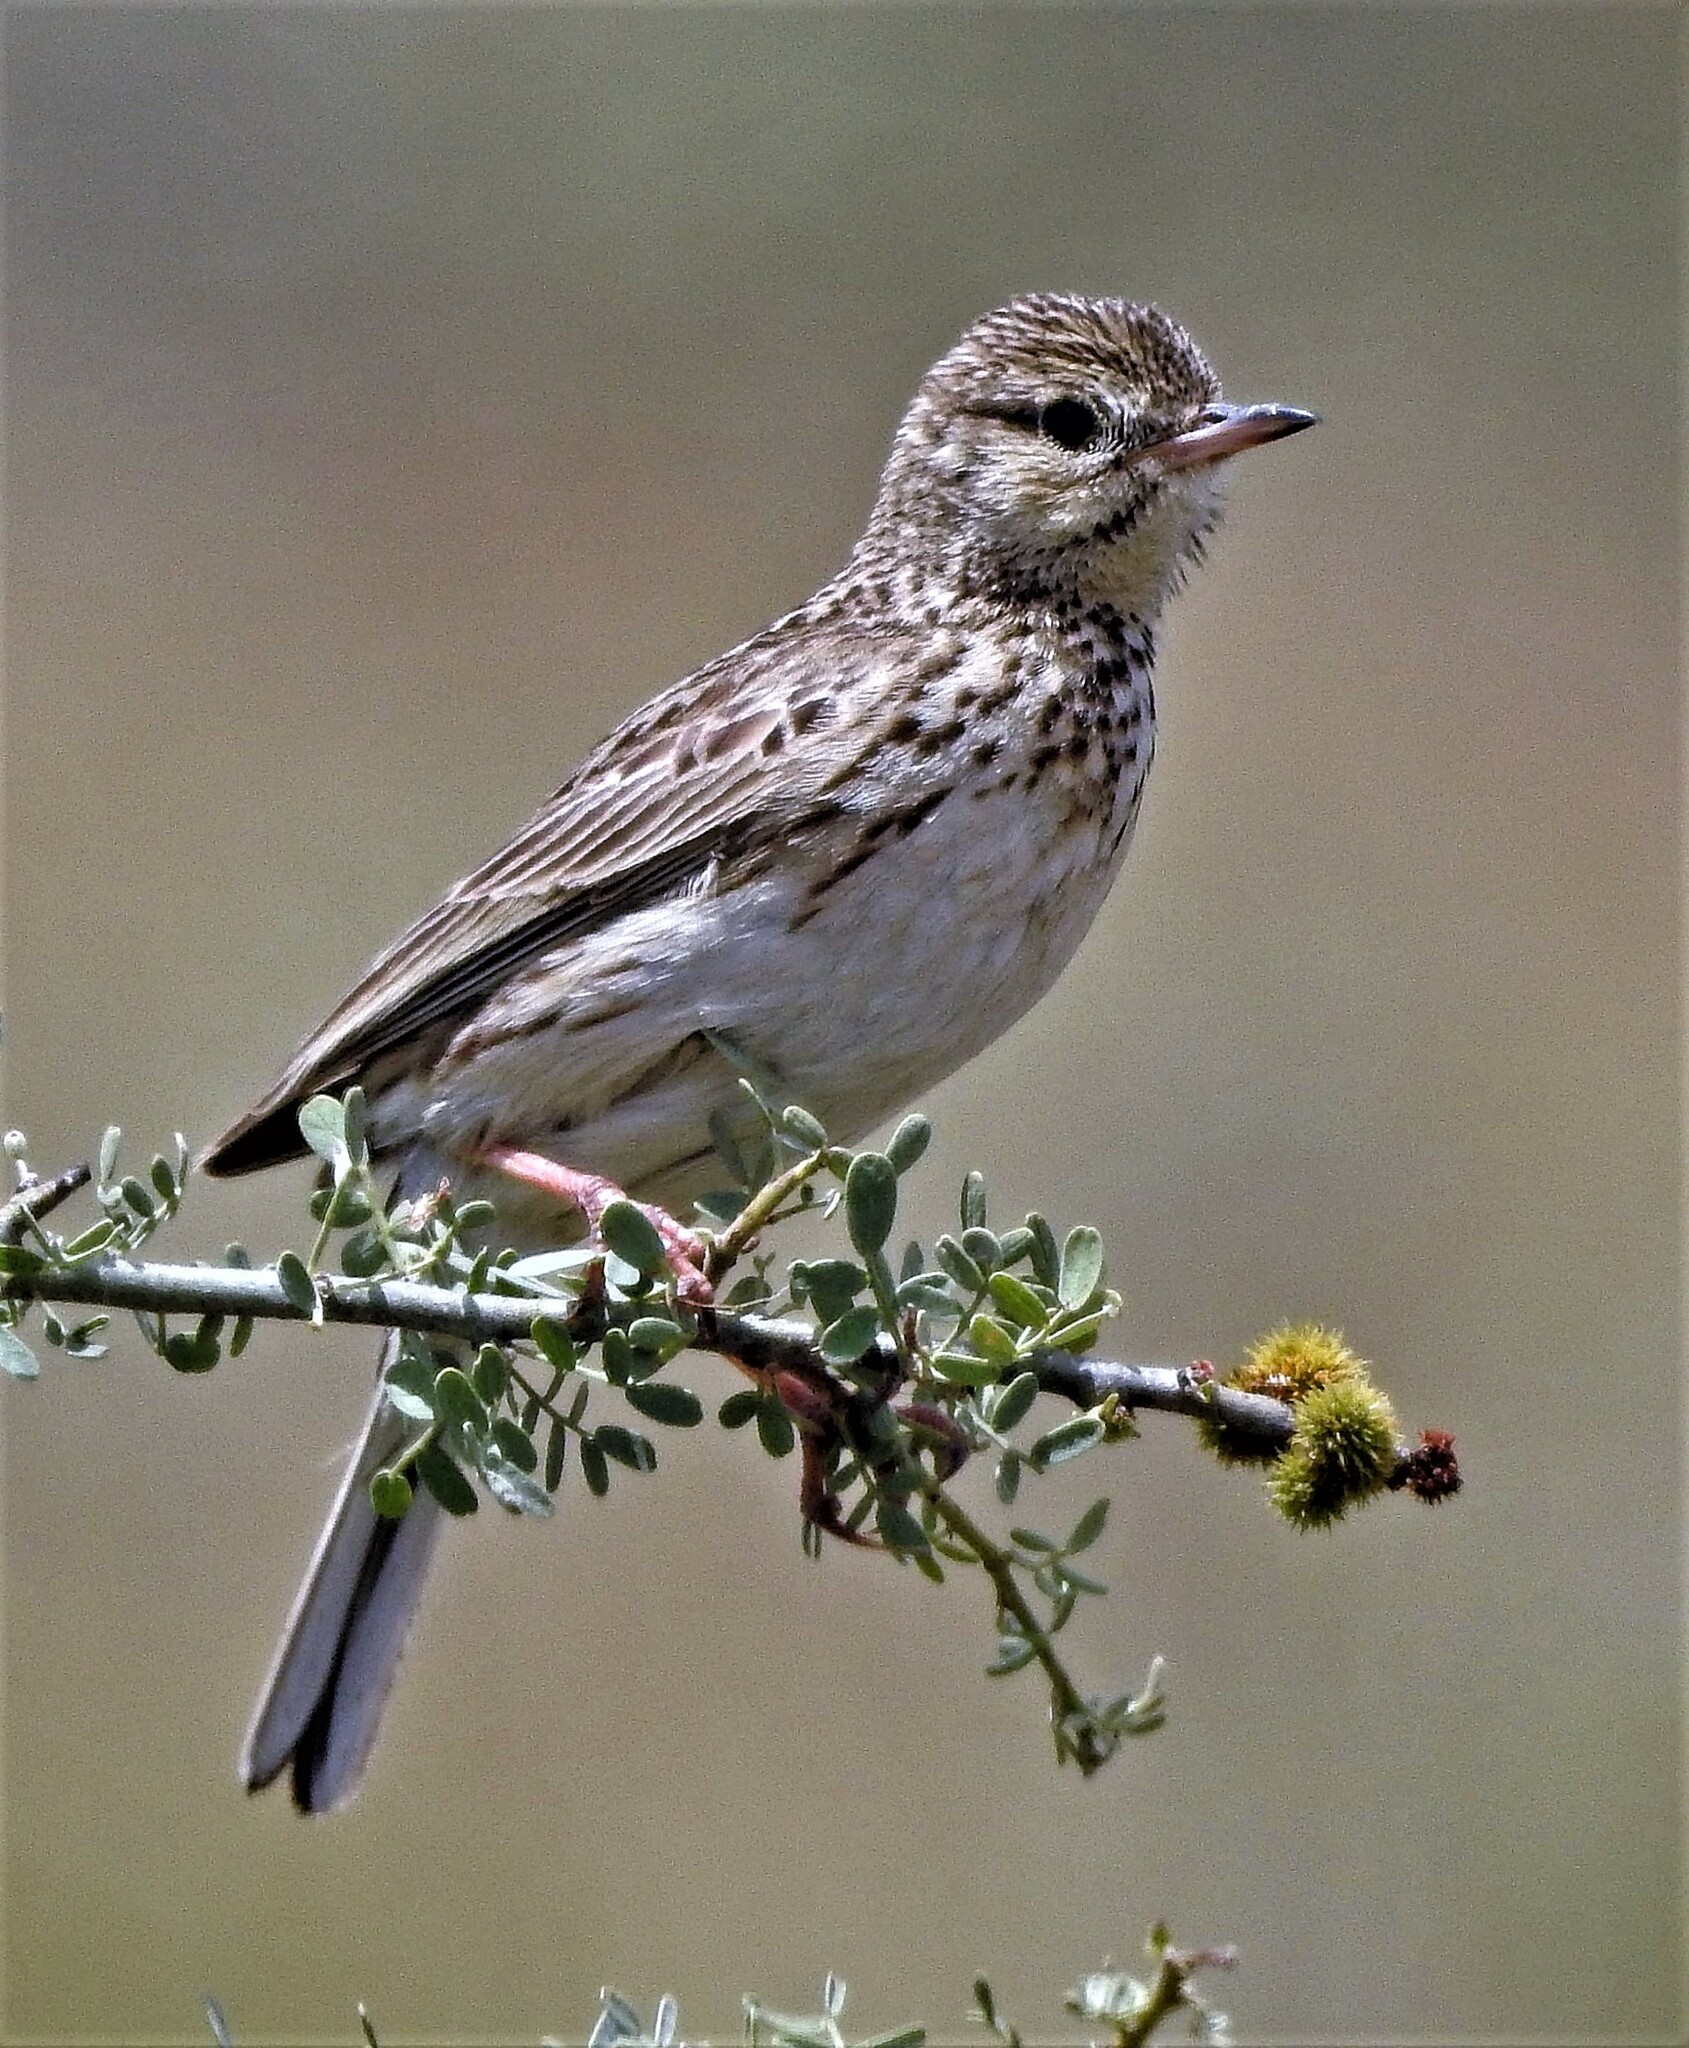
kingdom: Animalia
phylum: Chordata
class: Aves
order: Passeriformes
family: Motacillidae
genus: Anthus
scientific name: Anthus hellmayri
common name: Hellmayr's pipit
